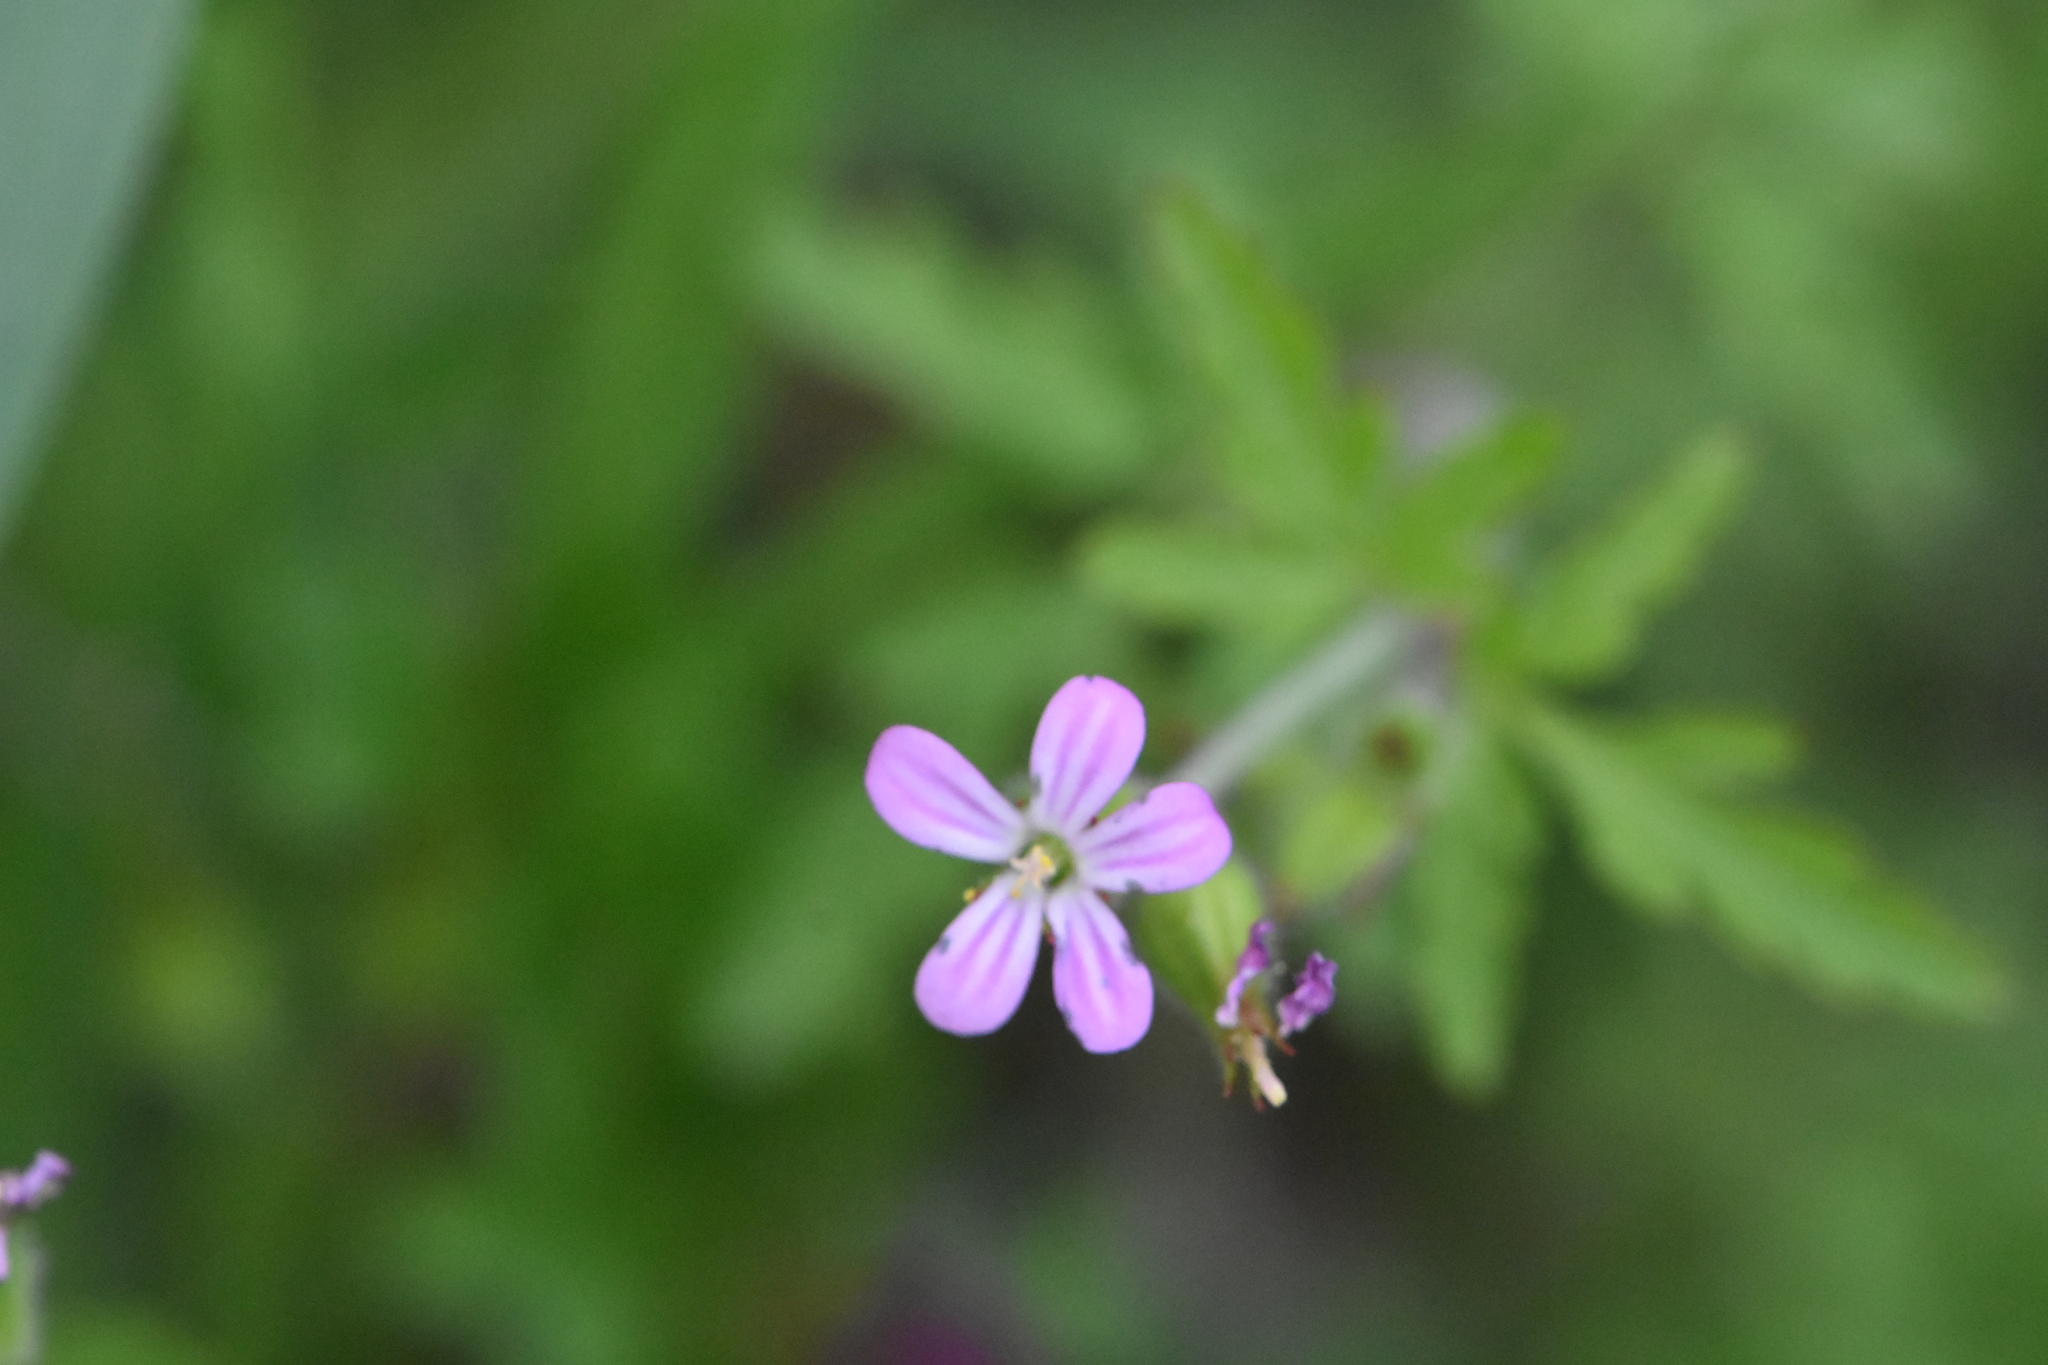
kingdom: Plantae
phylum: Tracheophyta
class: Magnoliopsida
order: Geraniales
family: Geraniaceae
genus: Geranium
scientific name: Geranium robertianum
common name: Herb-robert
